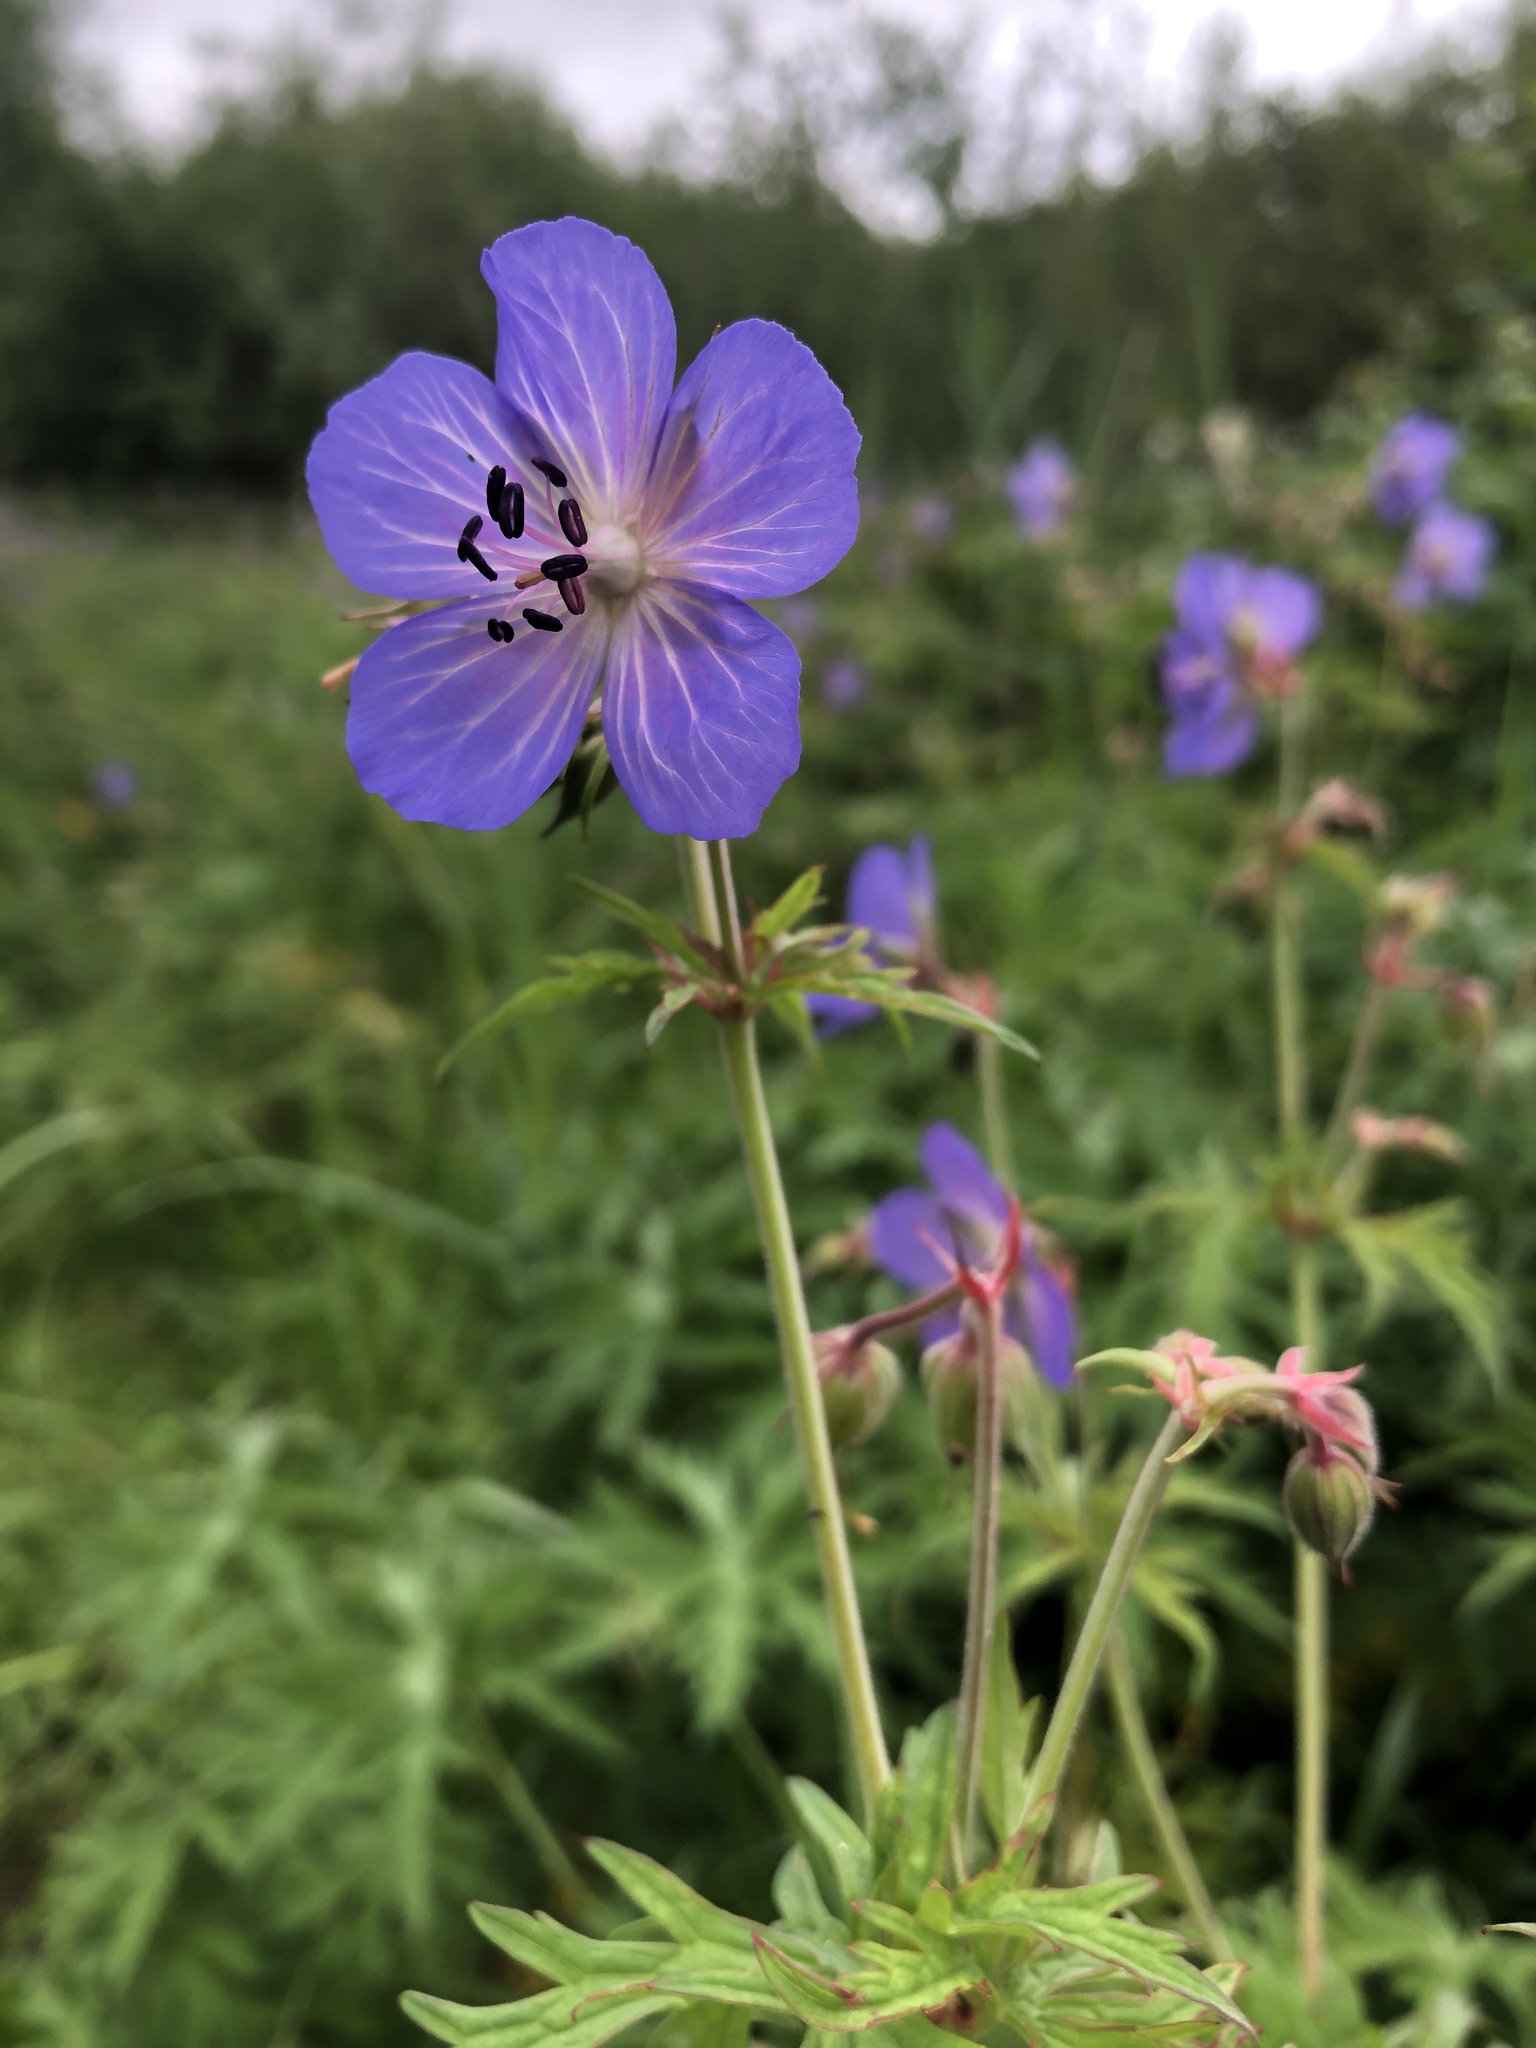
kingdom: Plantae
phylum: Tracheophyta
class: Magnoliopsida
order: Geraniales
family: Geraniaceae
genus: Geranium
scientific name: Geranium pratense
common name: Meadow crane's-bill
